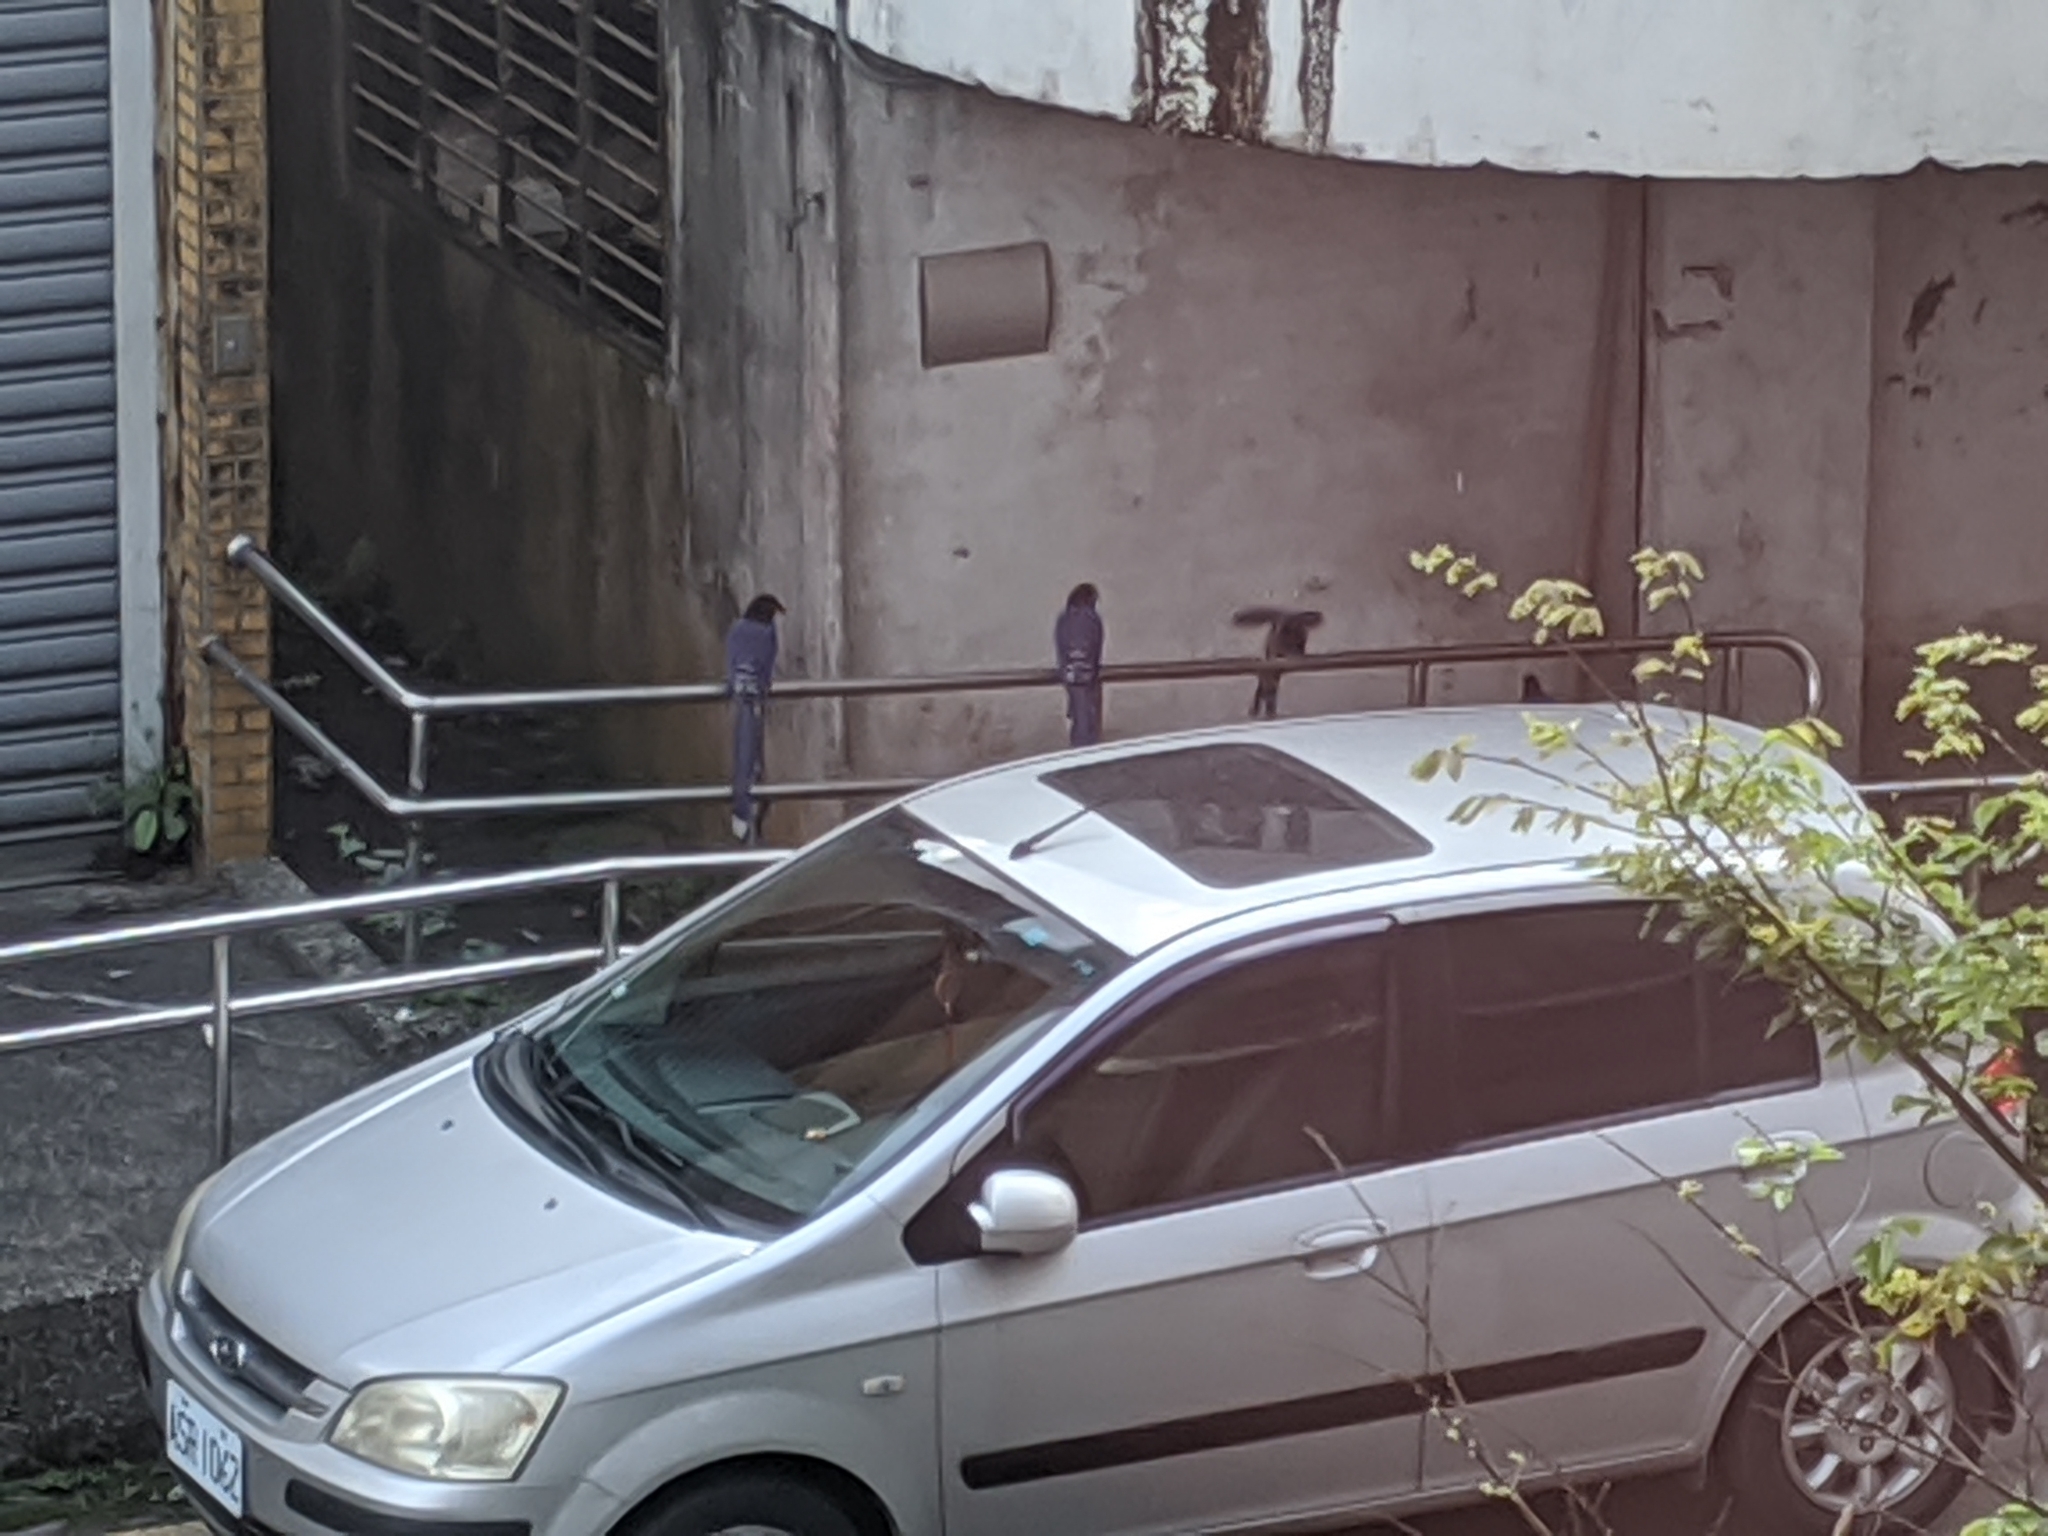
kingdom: Animalia
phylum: Chordata
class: Aves
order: Passeriformes
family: Corvidae
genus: Urocissa
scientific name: Urocissa caerulea
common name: Taiwan blue magpie
